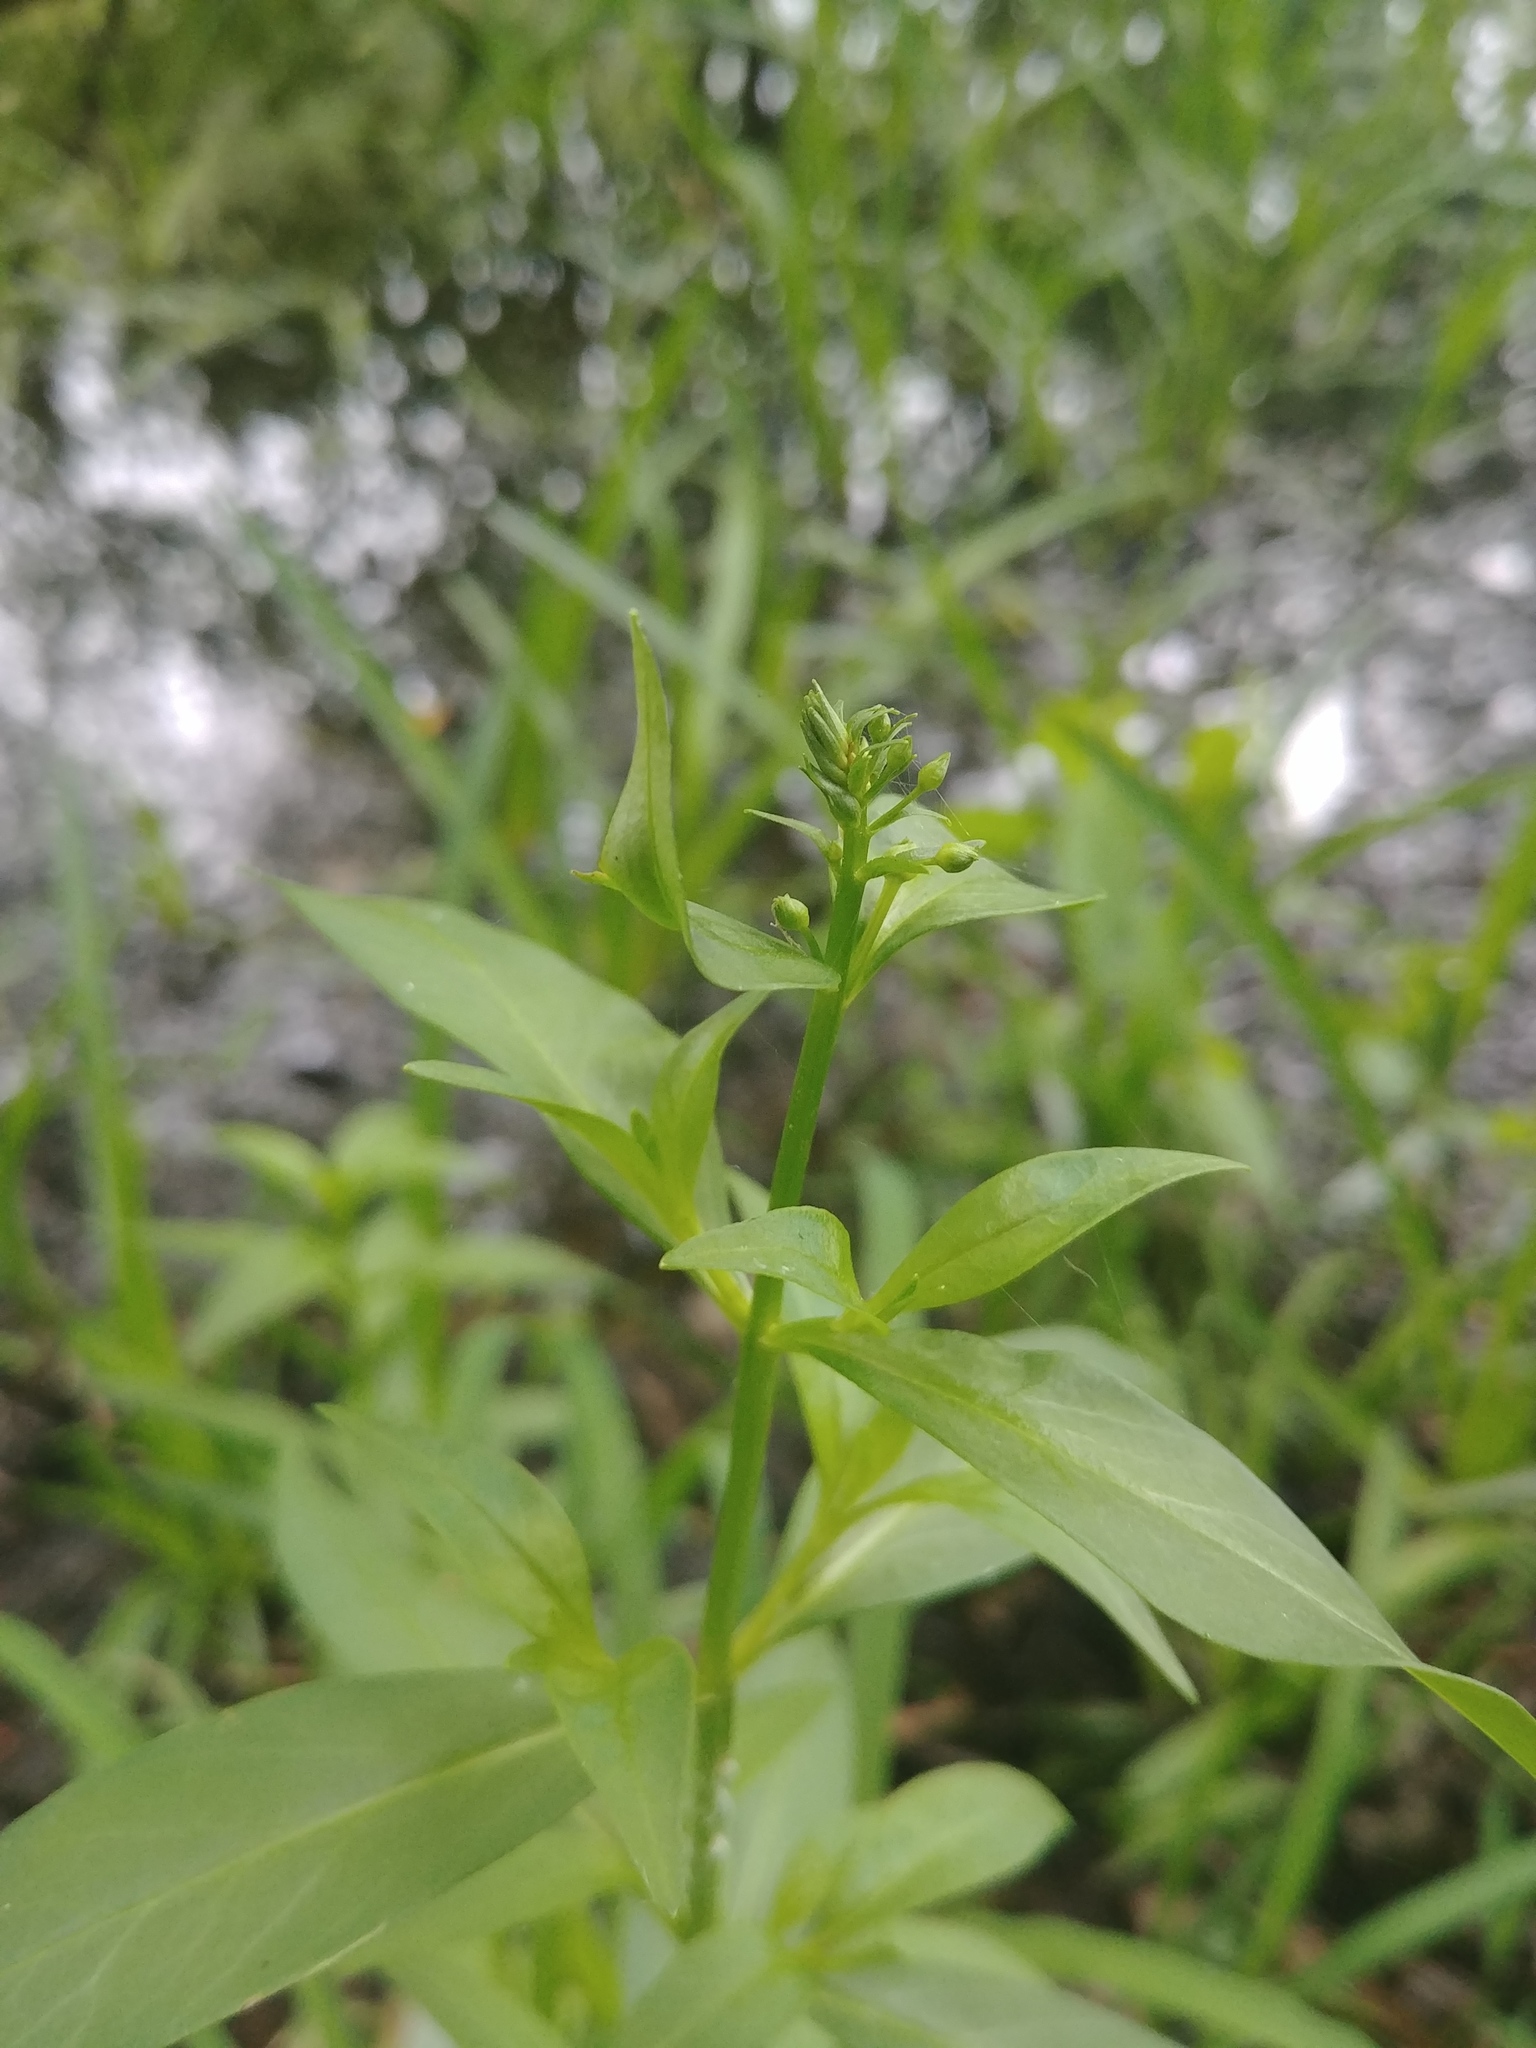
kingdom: Plantae
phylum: Tracheophyta
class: Magnoliopsida
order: Ericales
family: Primulaceae
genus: Lysimachia
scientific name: Lysimachia terrestris
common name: Lake loosestrife
